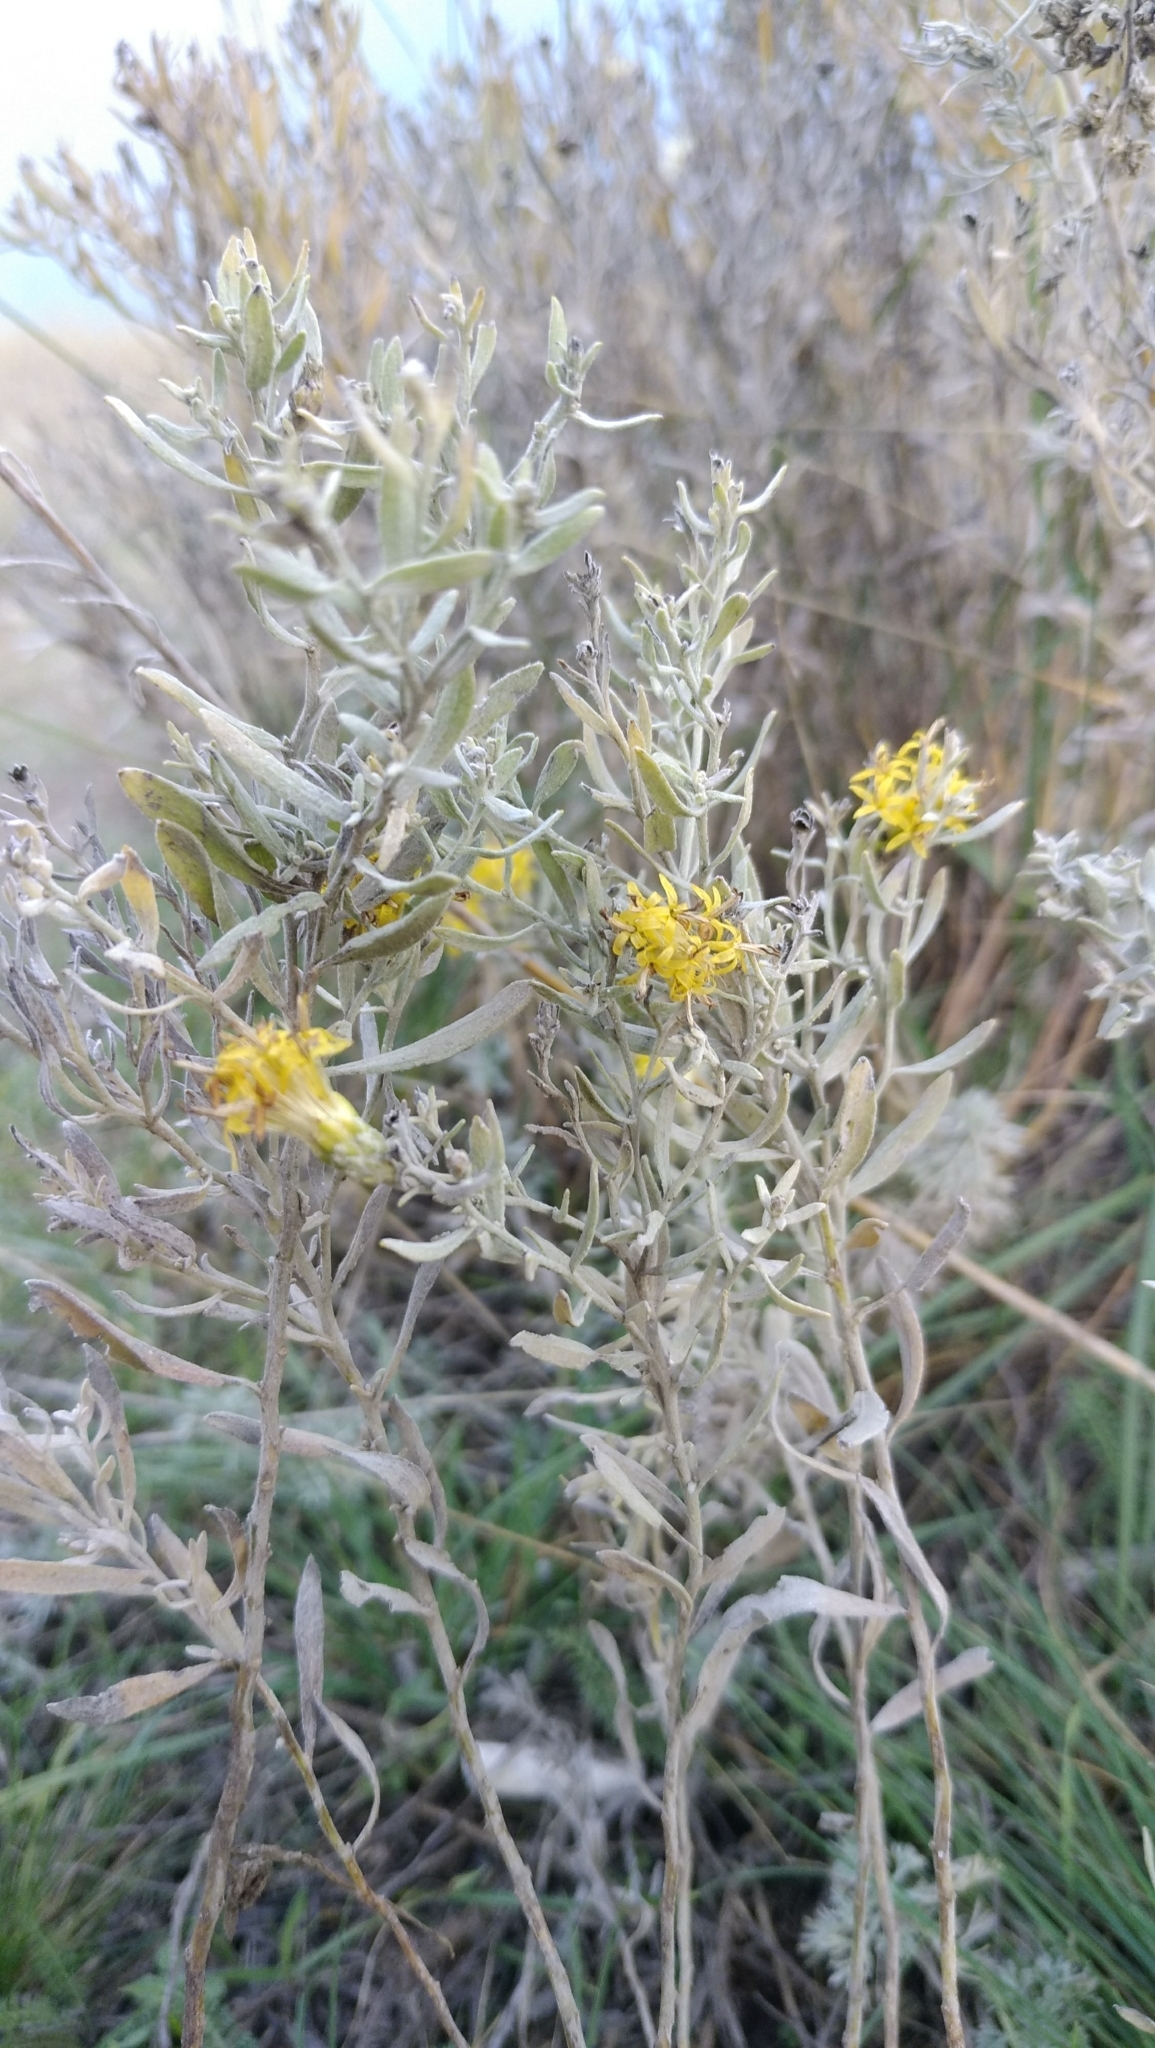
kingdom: Plantae
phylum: Tracheophyta
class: Magnoliopsida
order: Asterales
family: Asteraceae
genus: Galatella
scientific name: Galatella villosa
